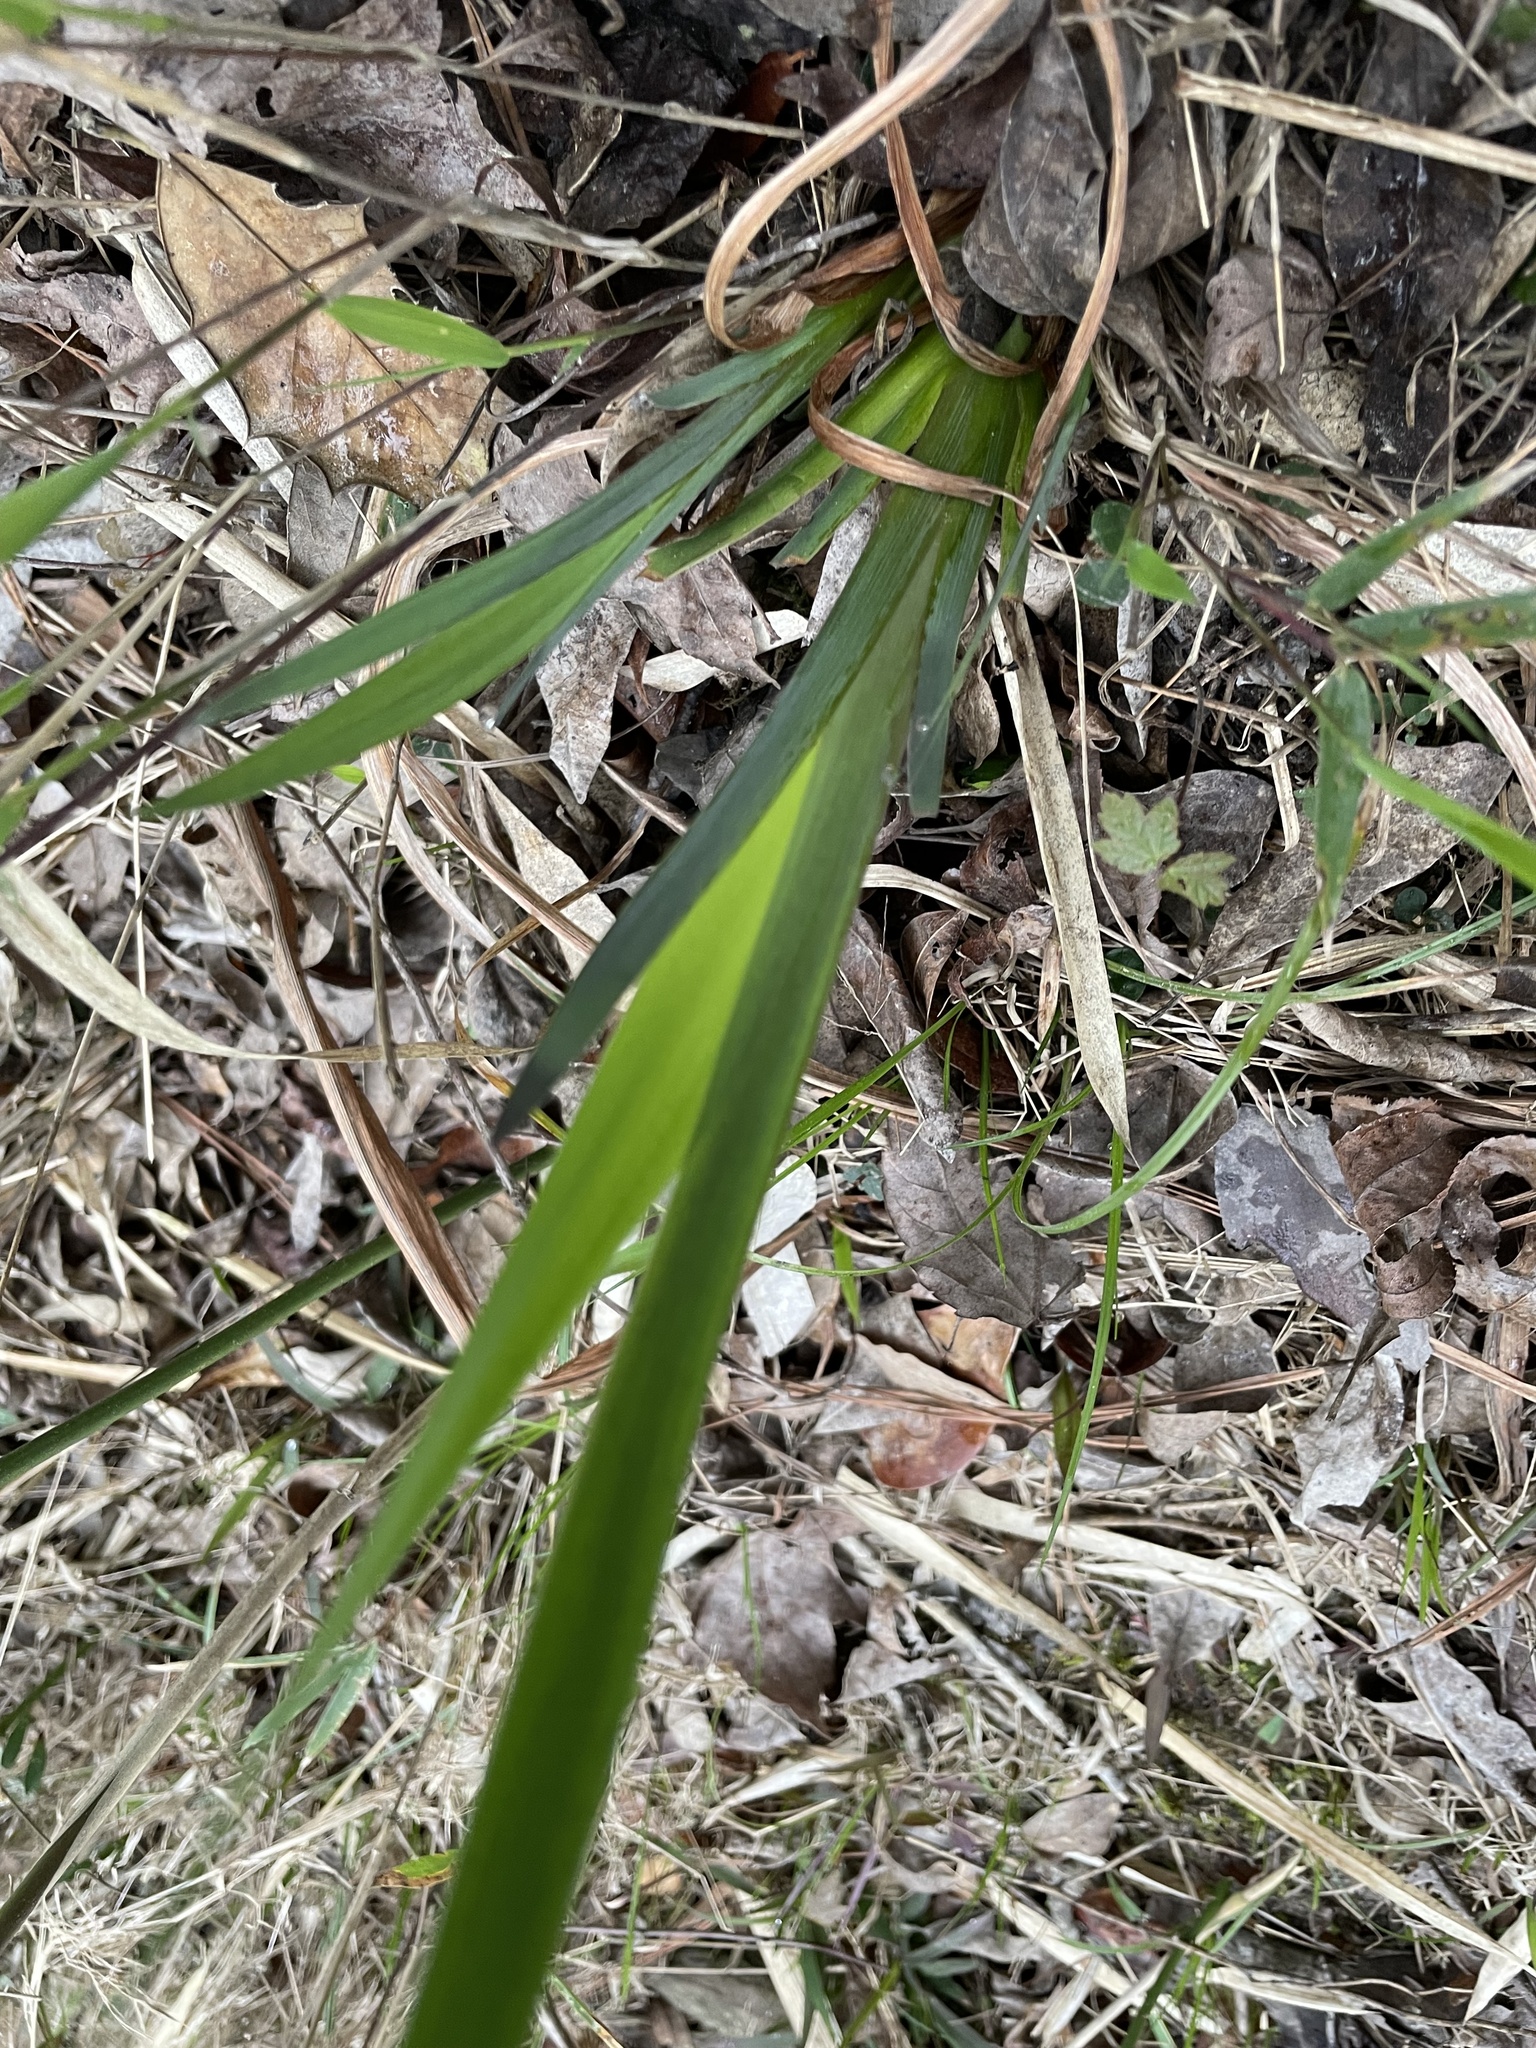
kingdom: Plantae
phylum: Tracheophyta
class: Liliopsida
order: Asparagales
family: Iridaceae
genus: Iris
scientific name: Iris virginica
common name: Southern blue flag
